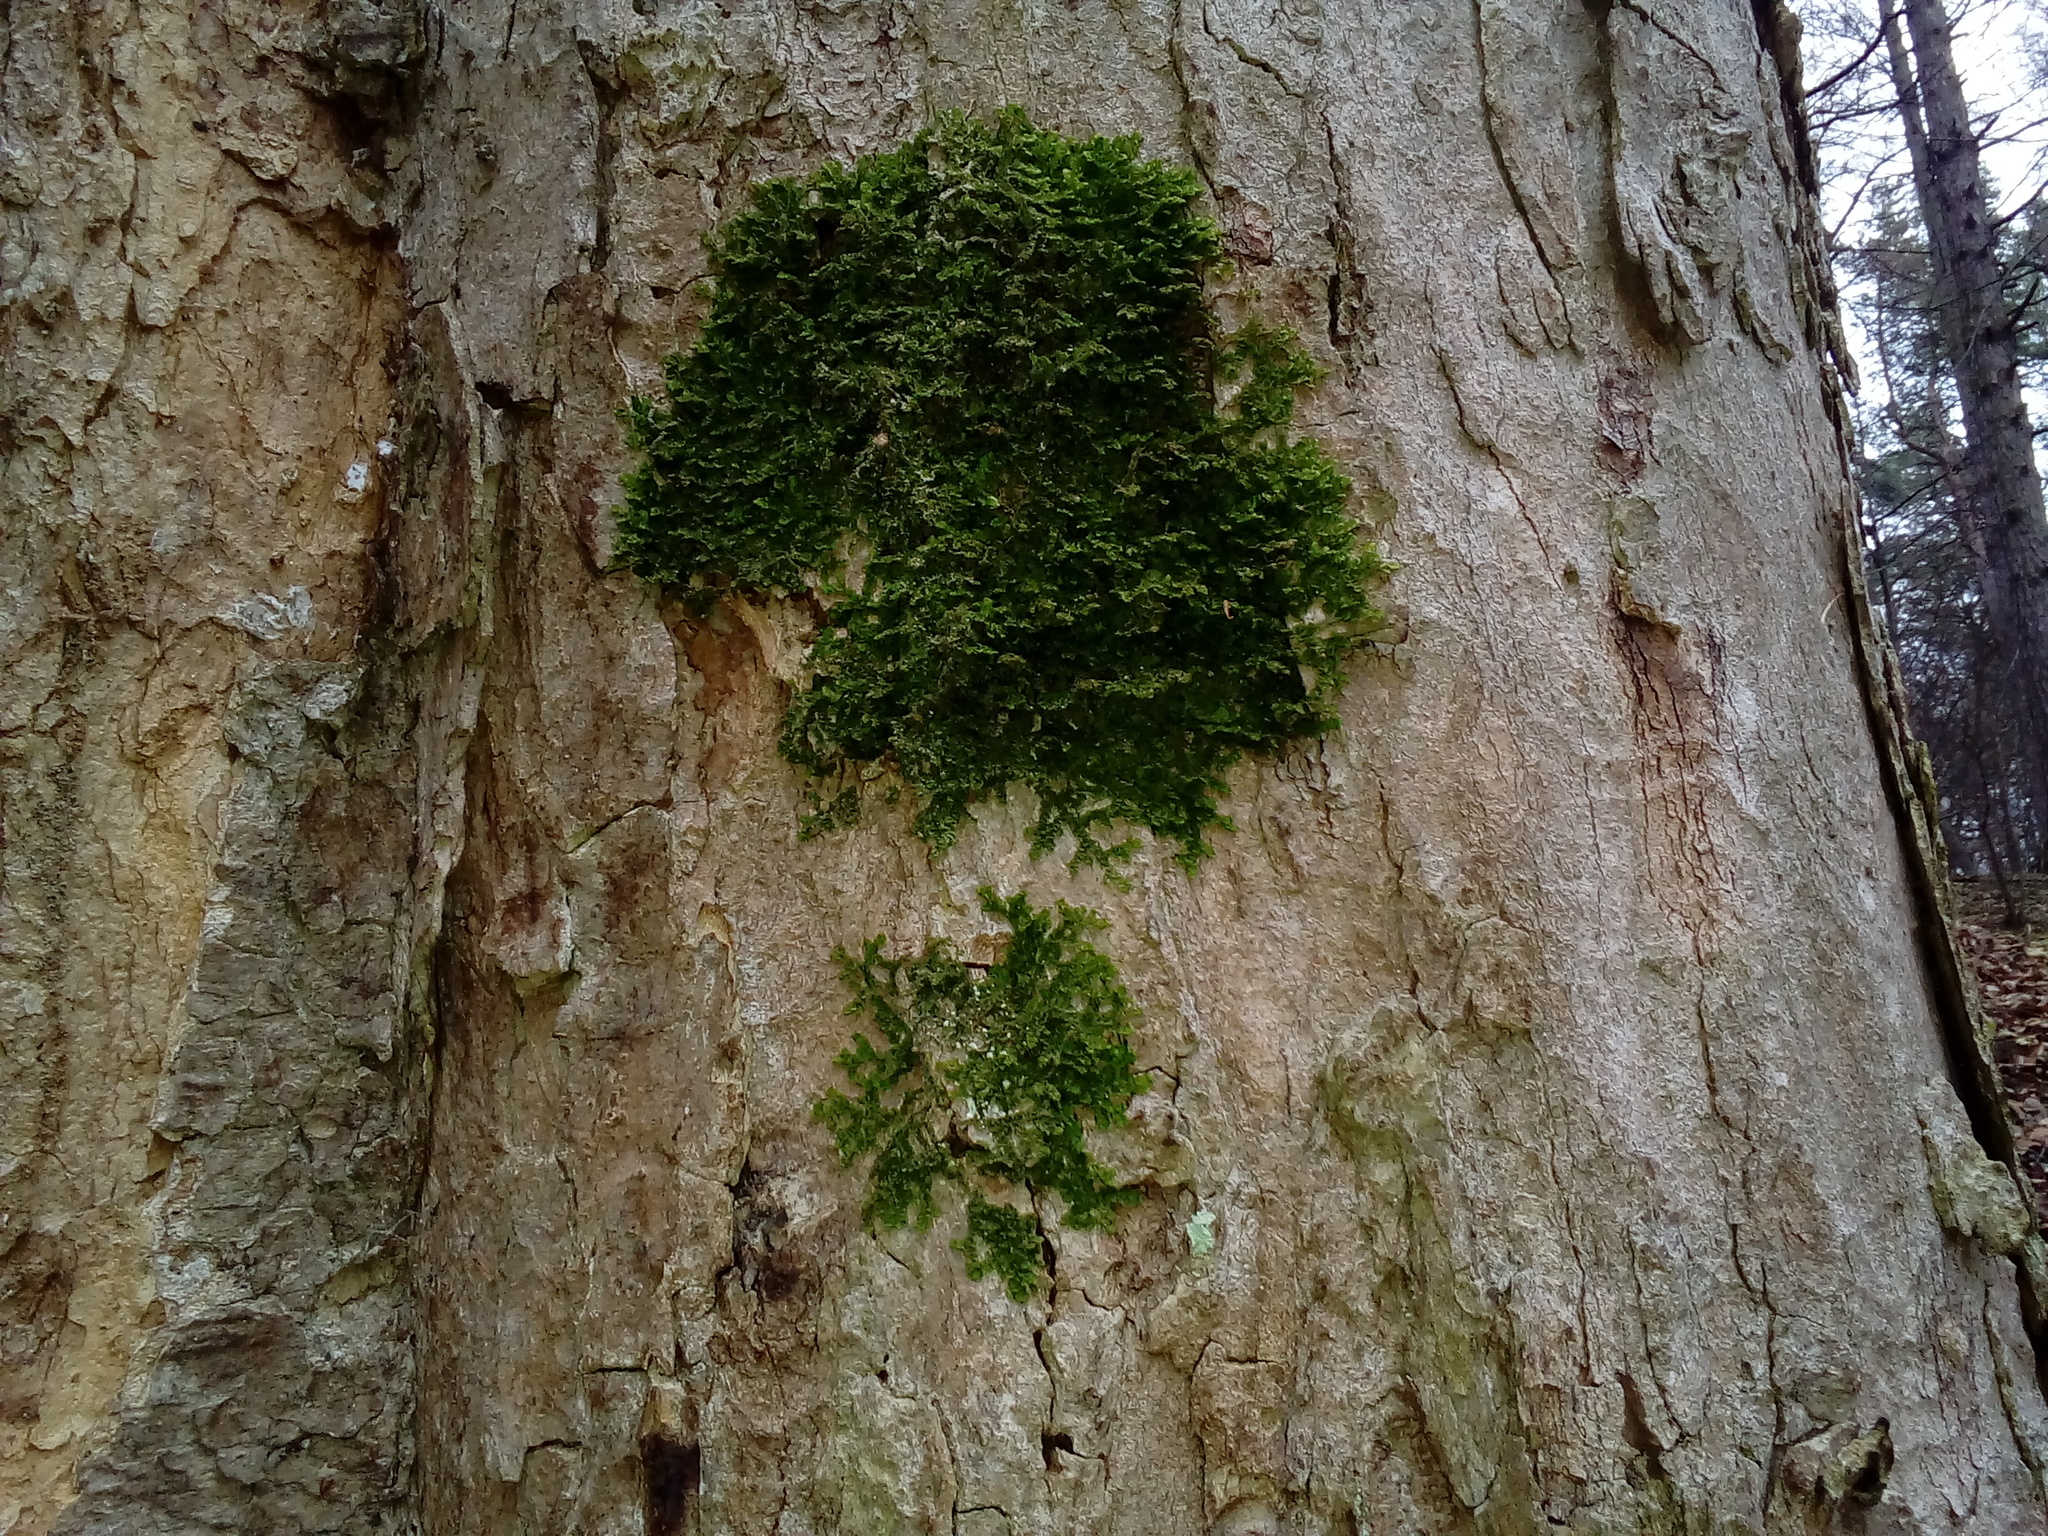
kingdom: Plantae
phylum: Marchantiophyta
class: Jungermanniopsida
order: Porellales
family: Porellaceae
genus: Porella
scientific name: Porella platyphylla
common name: Wall scalewort
